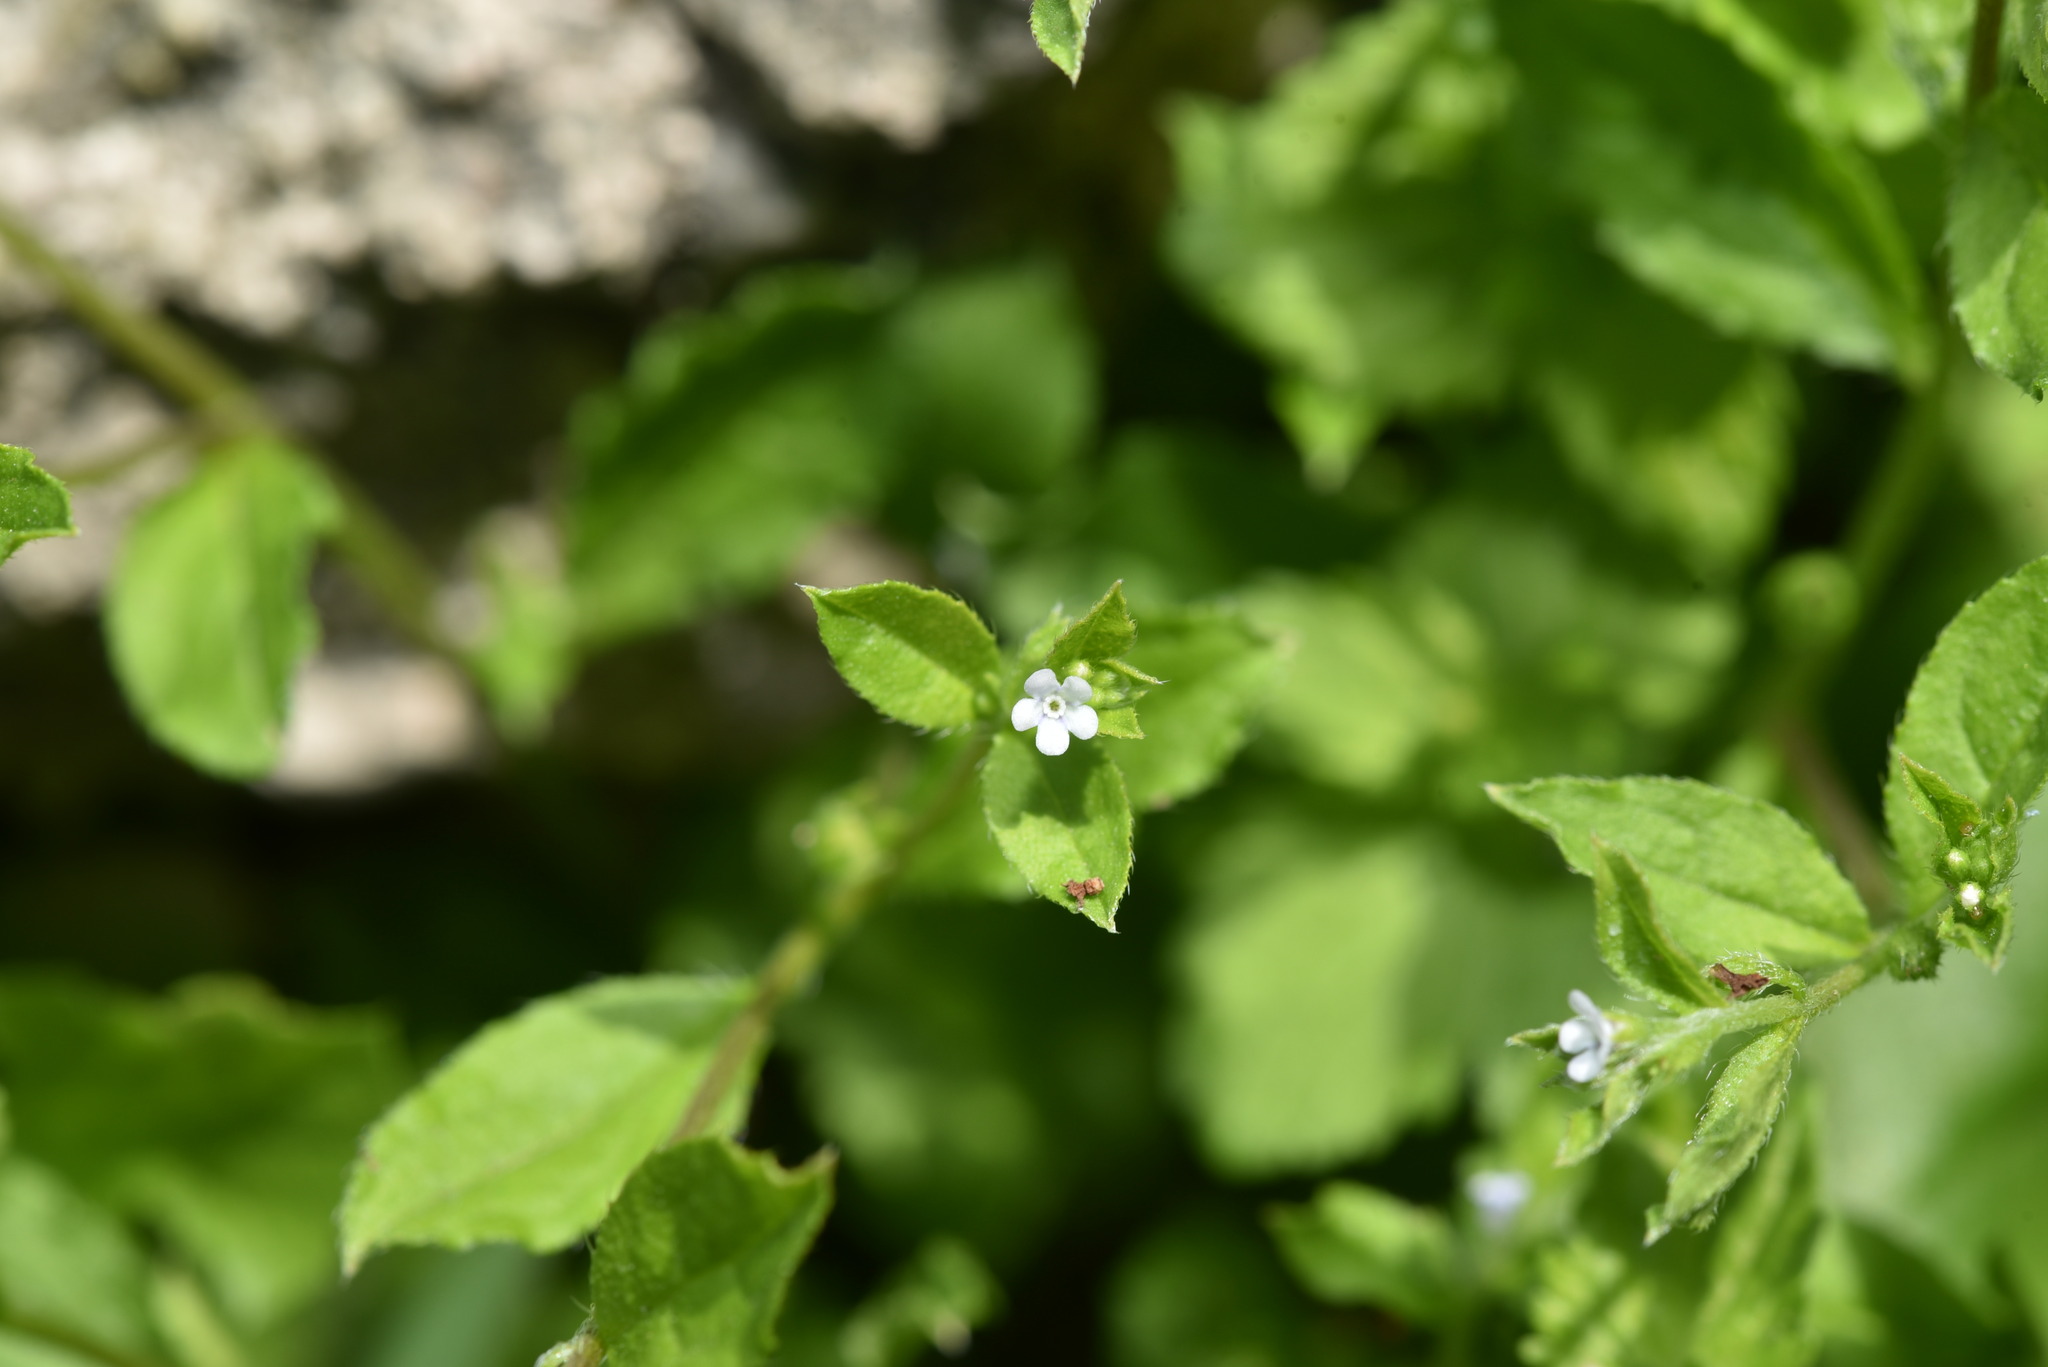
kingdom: Plantae
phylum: Tracheophyta
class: Magnoliopsida
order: Boraginales
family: Boraginaceae
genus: Bothriospermum
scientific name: Bothriospermum zeylanicum
